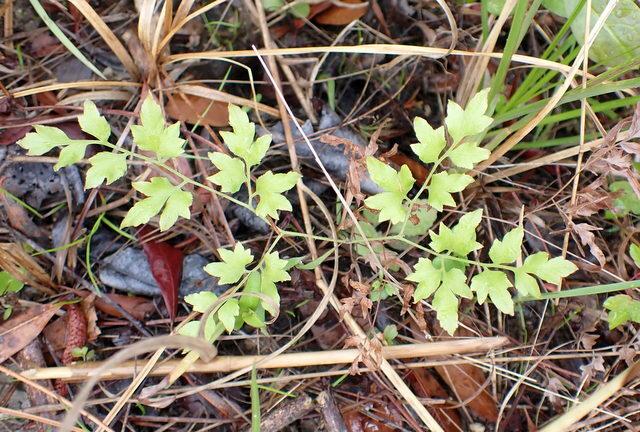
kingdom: Plantae
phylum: Tracheophyta
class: Polypodiopsida
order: Schizaeales
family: Lygodiaceae
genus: Lygodium
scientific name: Lygodium japonicum
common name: Japanese climbing fern
